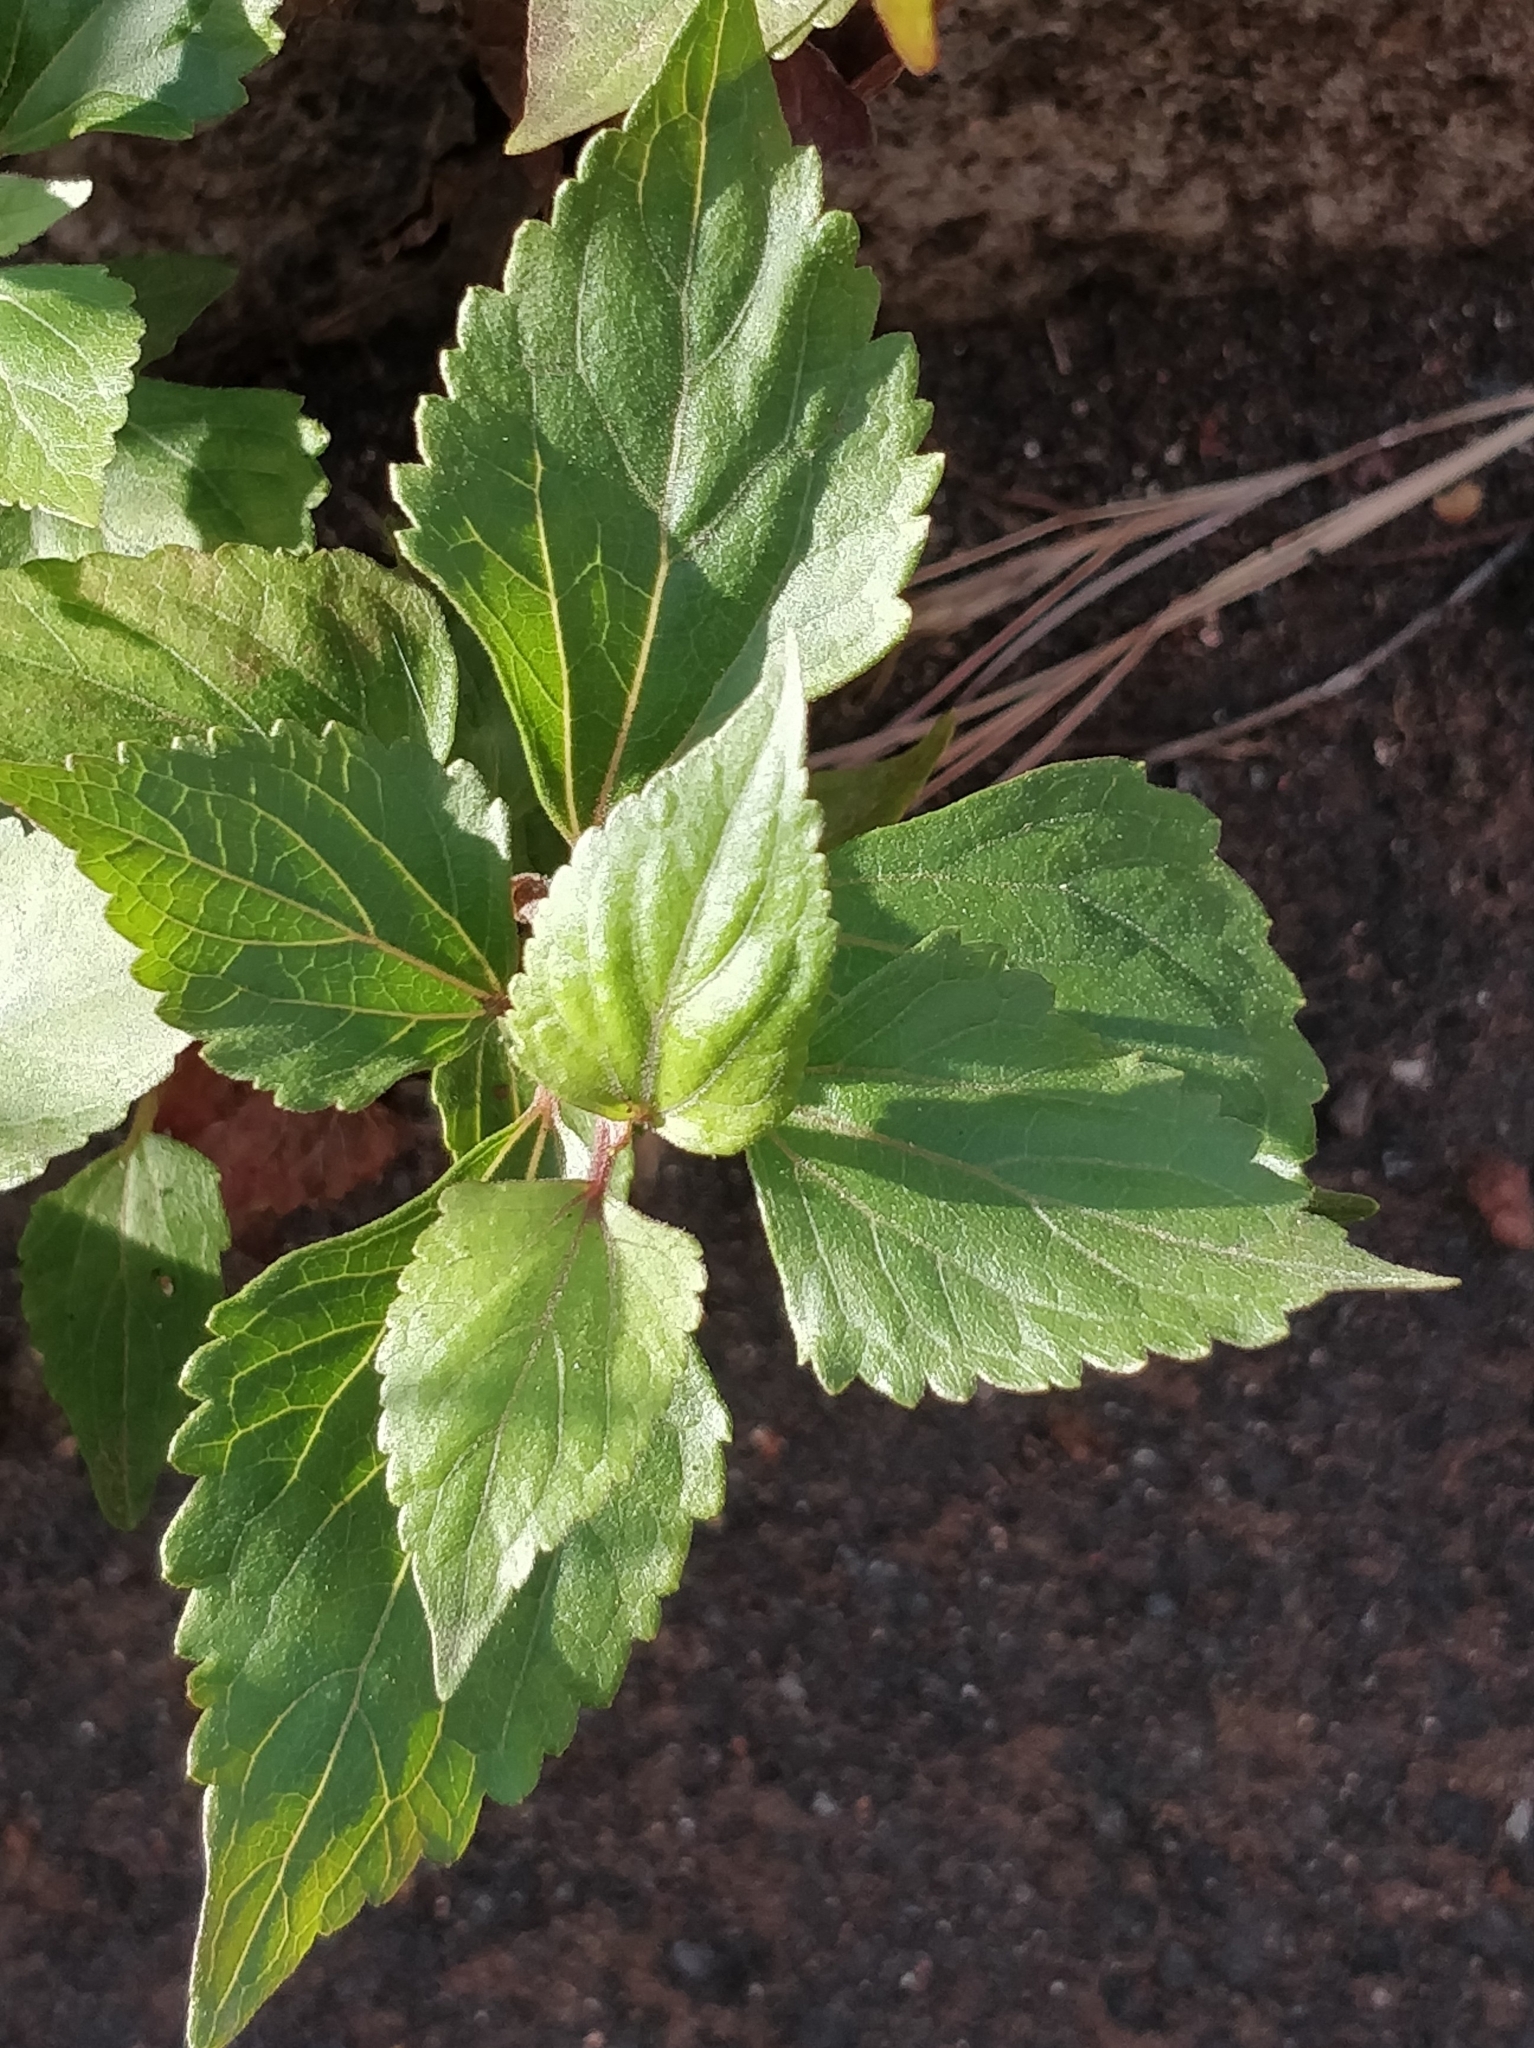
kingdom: Plantae
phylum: Tracheophyta
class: Magnoliopsida
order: Asterales
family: Asteraceae
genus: Ageratina
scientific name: Ageratina adenophora
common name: Sticky snakeroot
